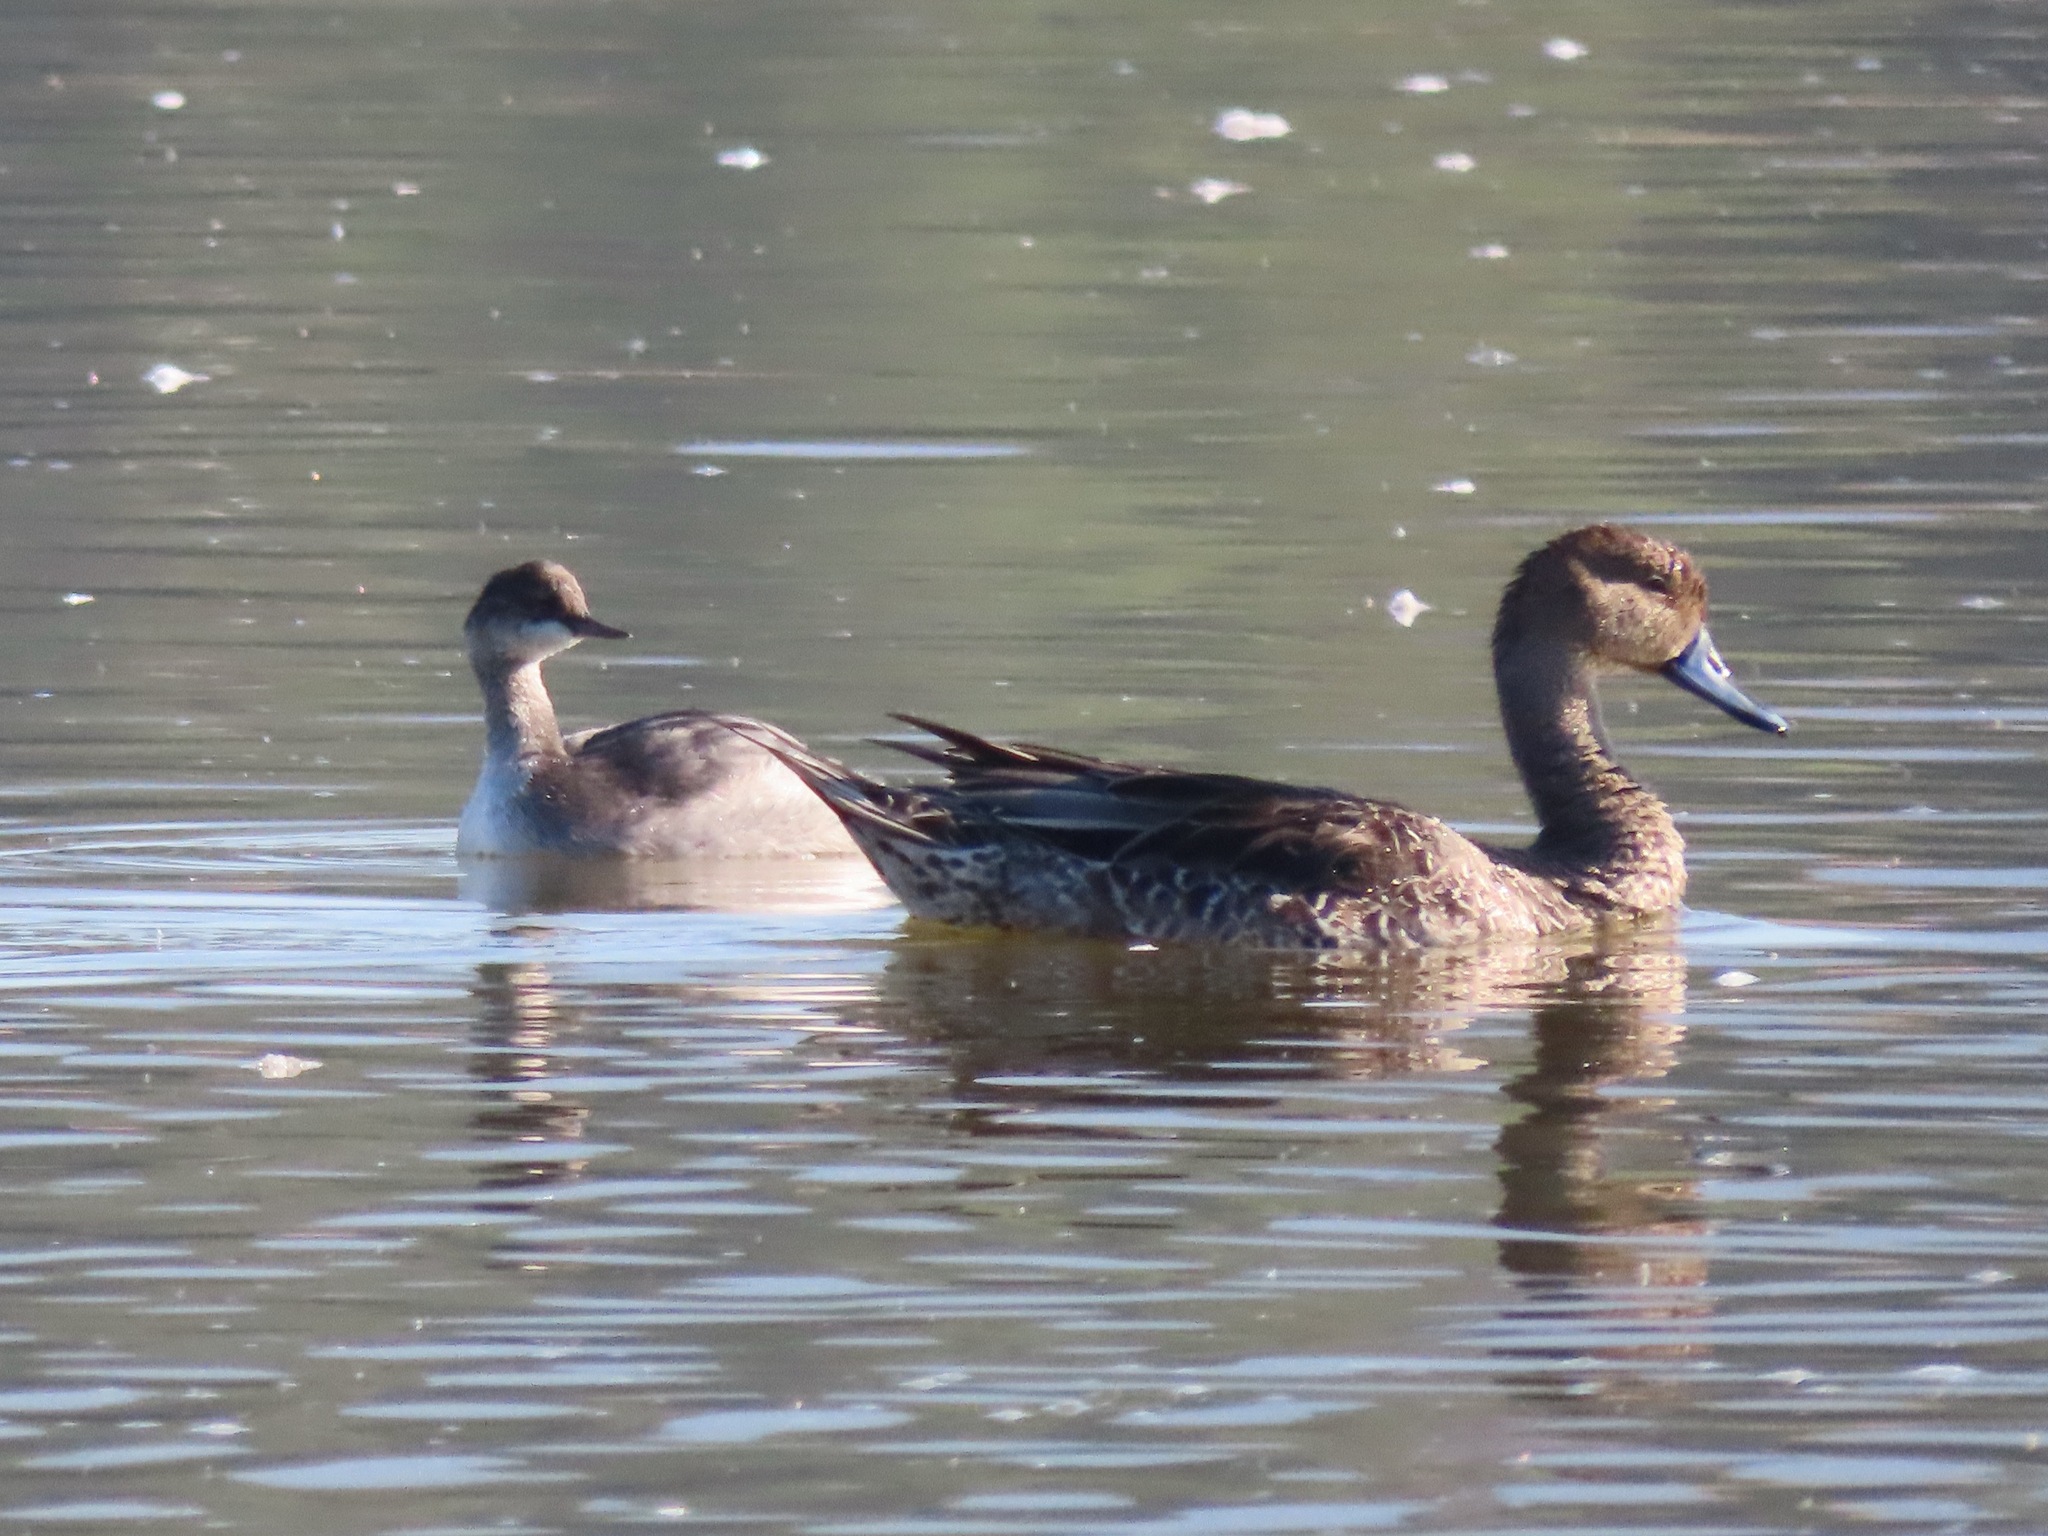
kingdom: Animalia
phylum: Chordata
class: Aves
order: Anseriformes
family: Anatidae
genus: Anas
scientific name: Anas acuta
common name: Northern pintail
